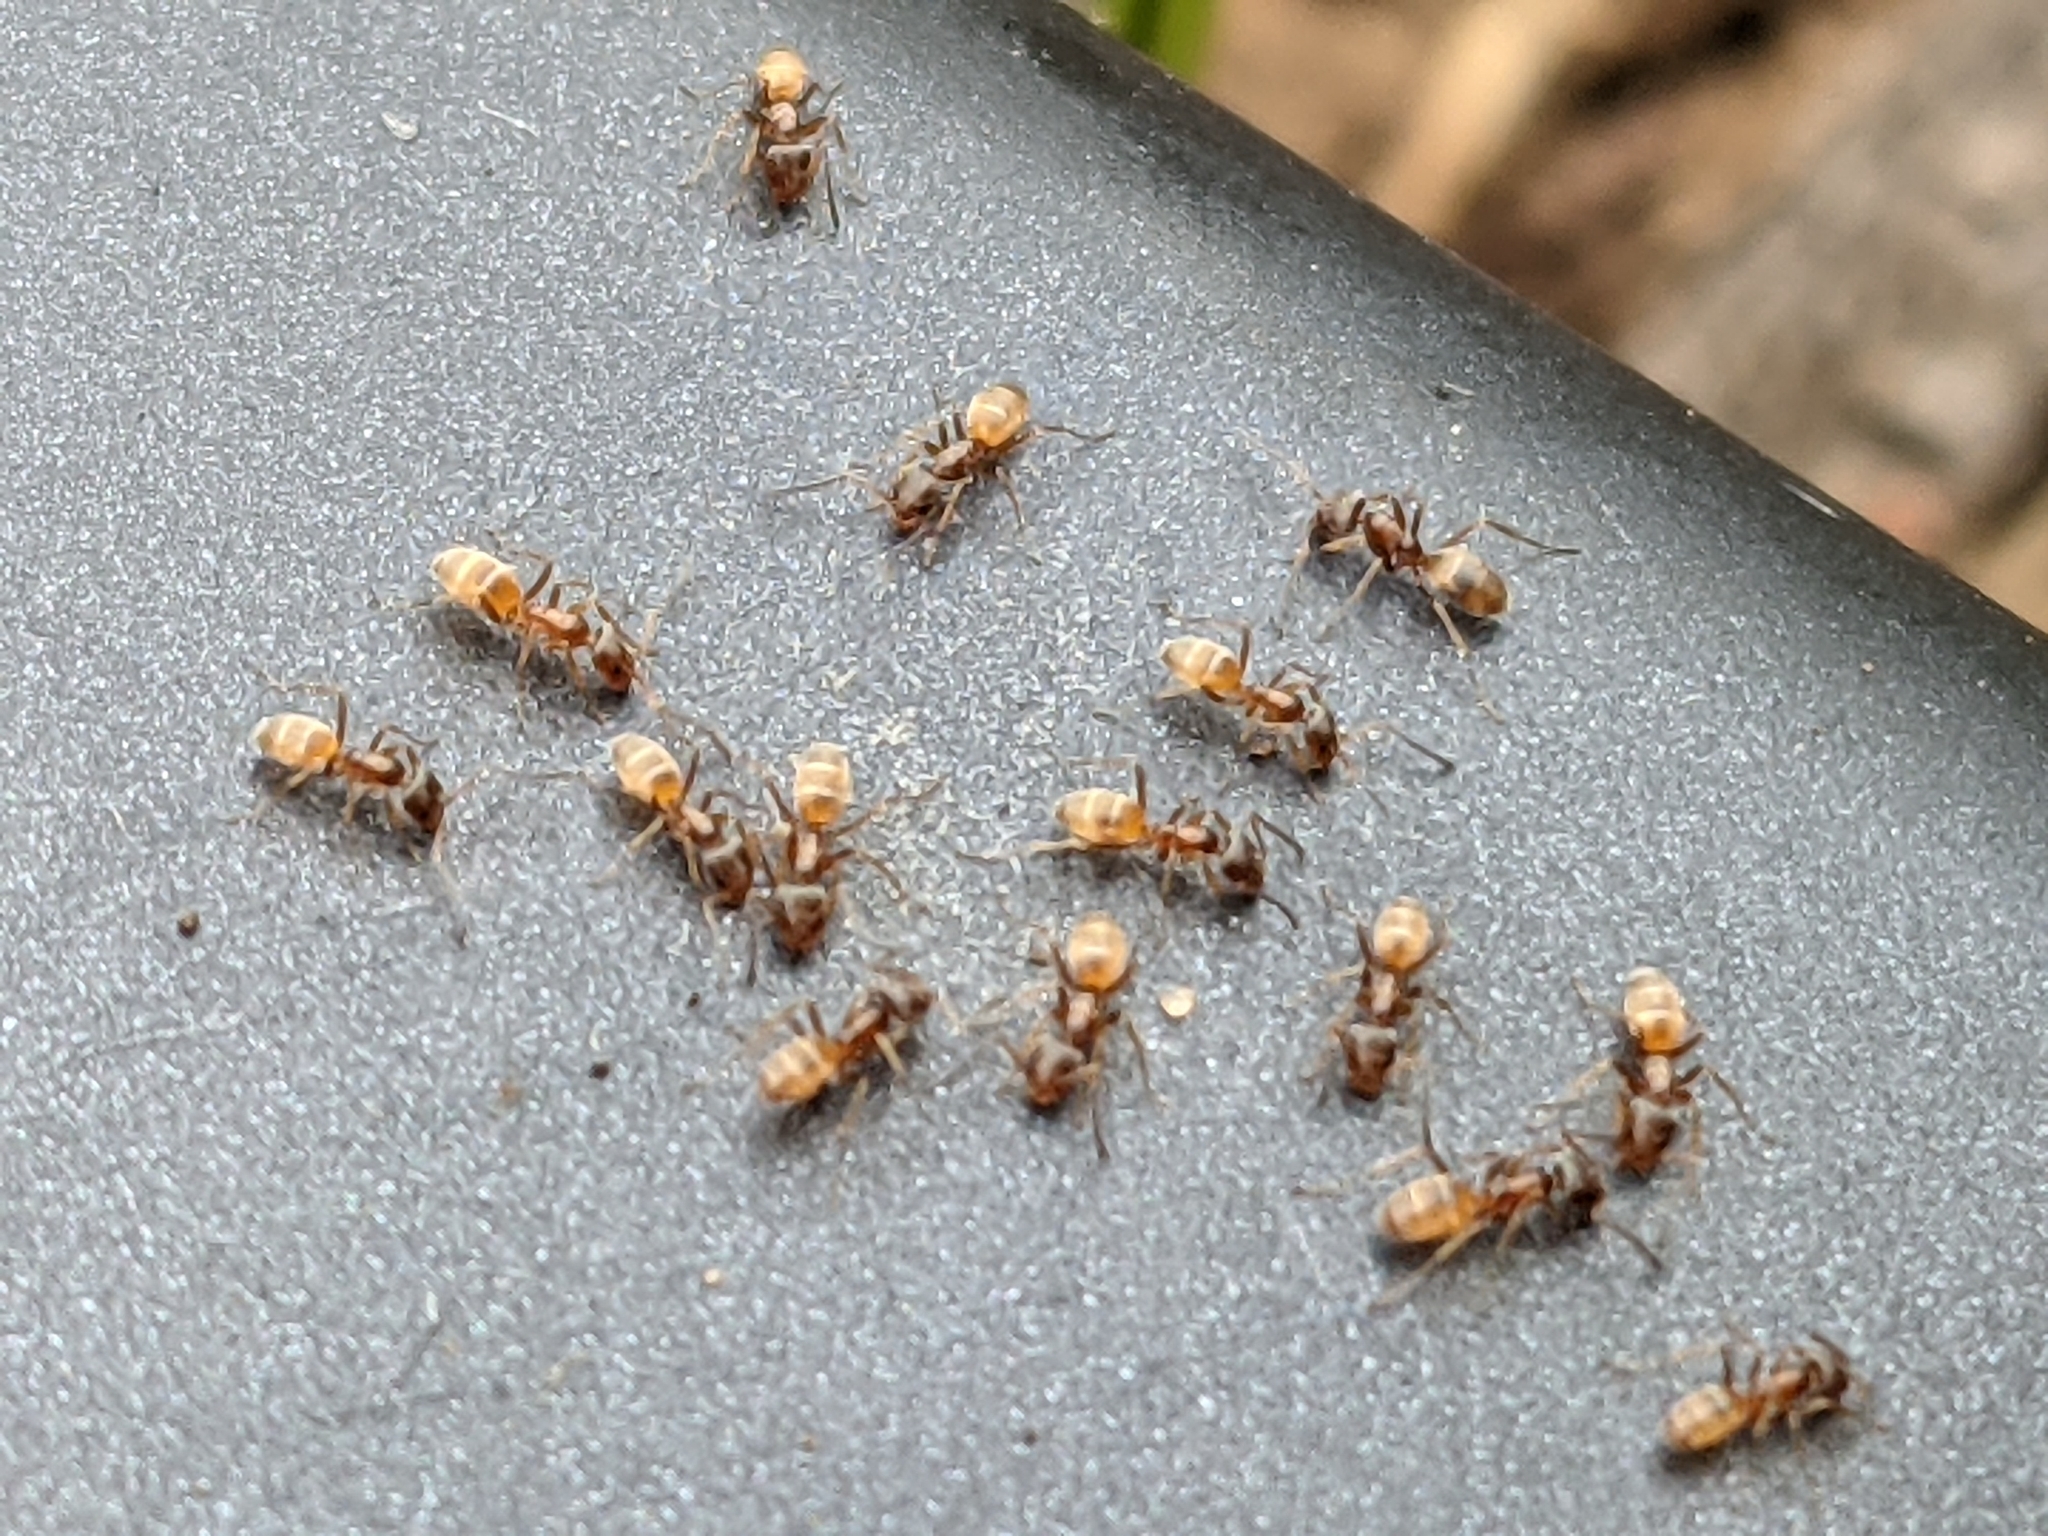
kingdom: Animalia
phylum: Arthropoda
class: Insecta
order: Hymenoptera
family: Formicidae
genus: Forelius
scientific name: Forelius pruinosus
